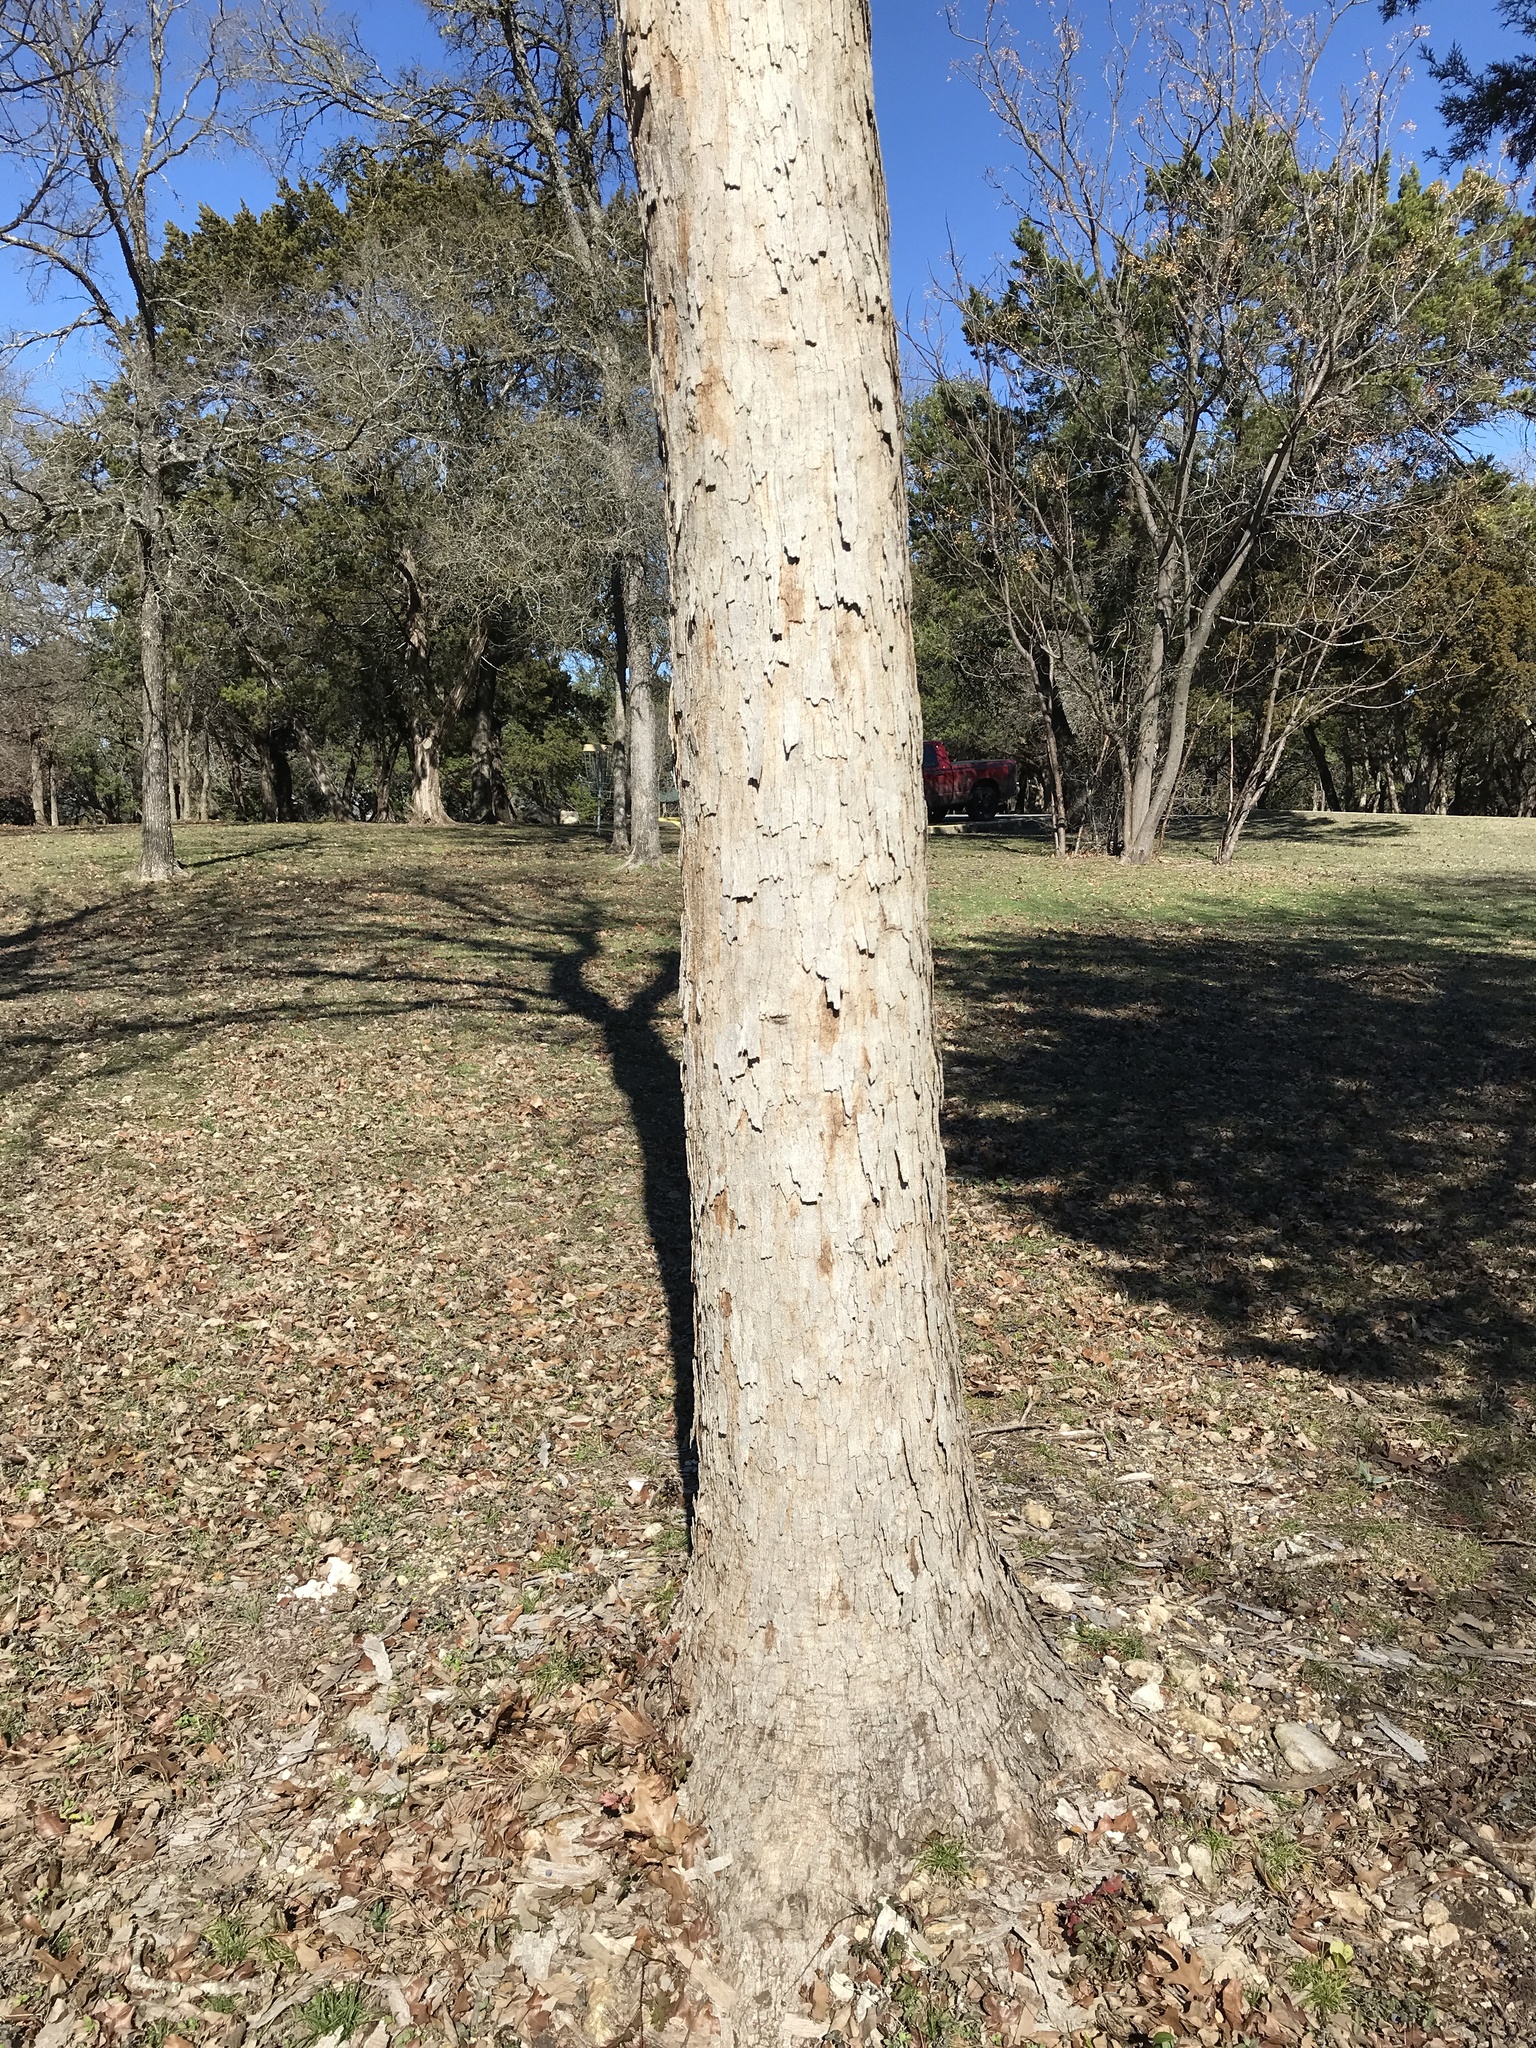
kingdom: Plantae
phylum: Tracheophyta
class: Magnoliopsida
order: Fagales
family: Fagaceae
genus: Quercus
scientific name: Quercus sinuata
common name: Durand oak
